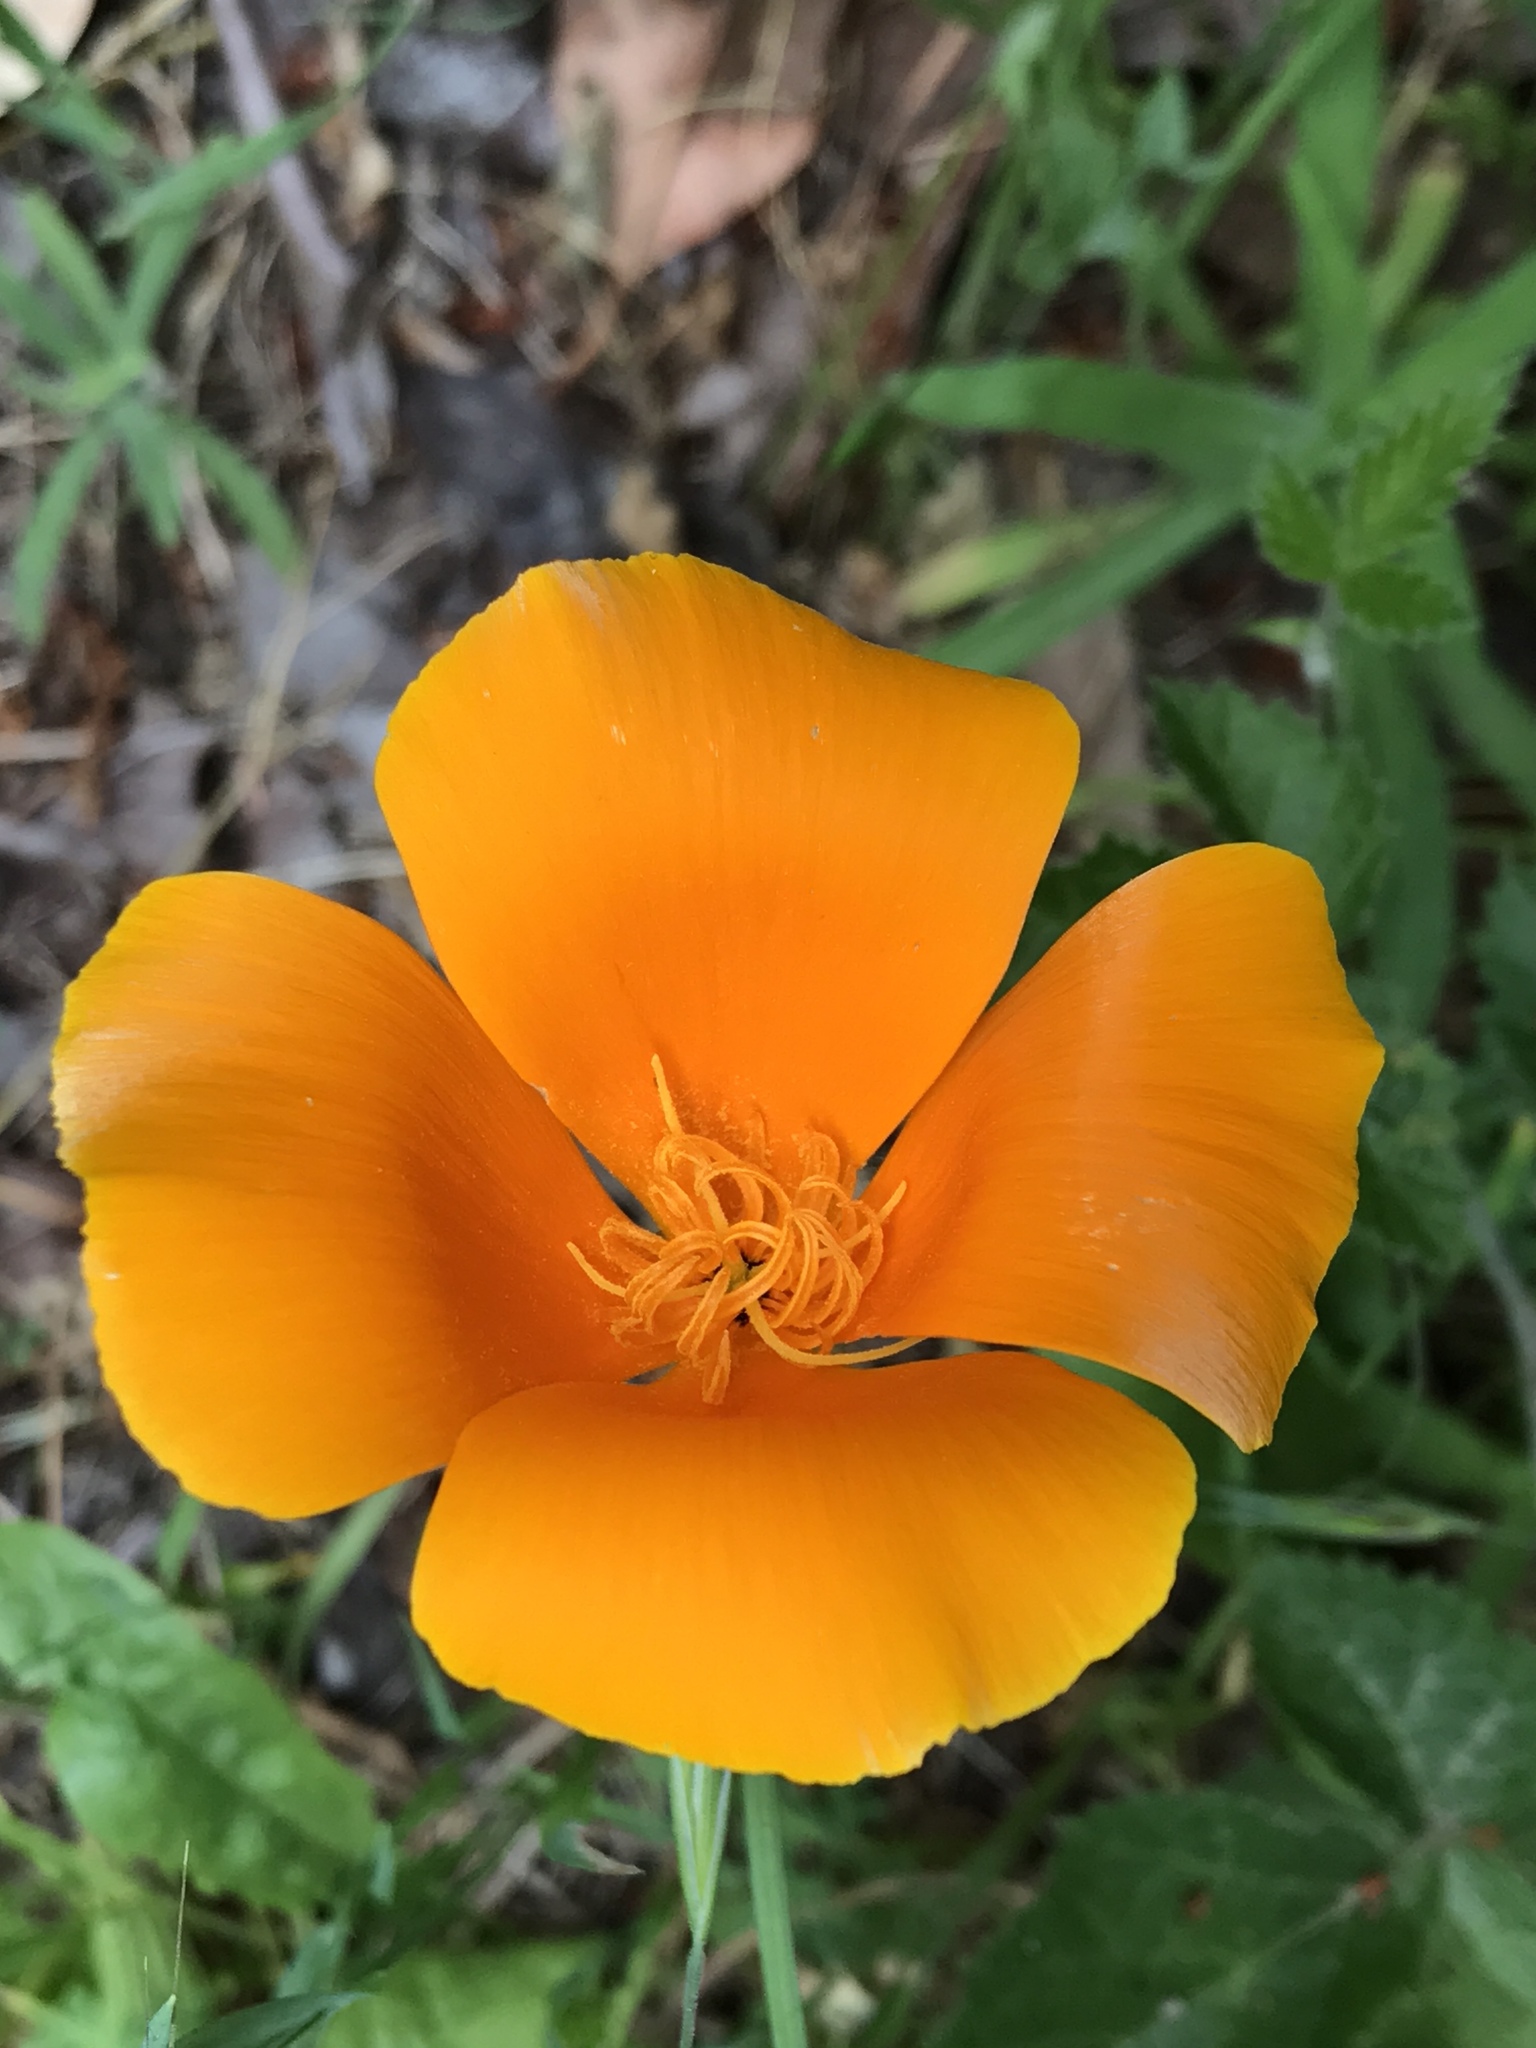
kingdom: Plantae
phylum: Tracheophyta
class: Magnoliopsida
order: Ranunculales
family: Papaveraceae
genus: Eschscholzia
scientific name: Eschscholzia californica
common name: California poppy
